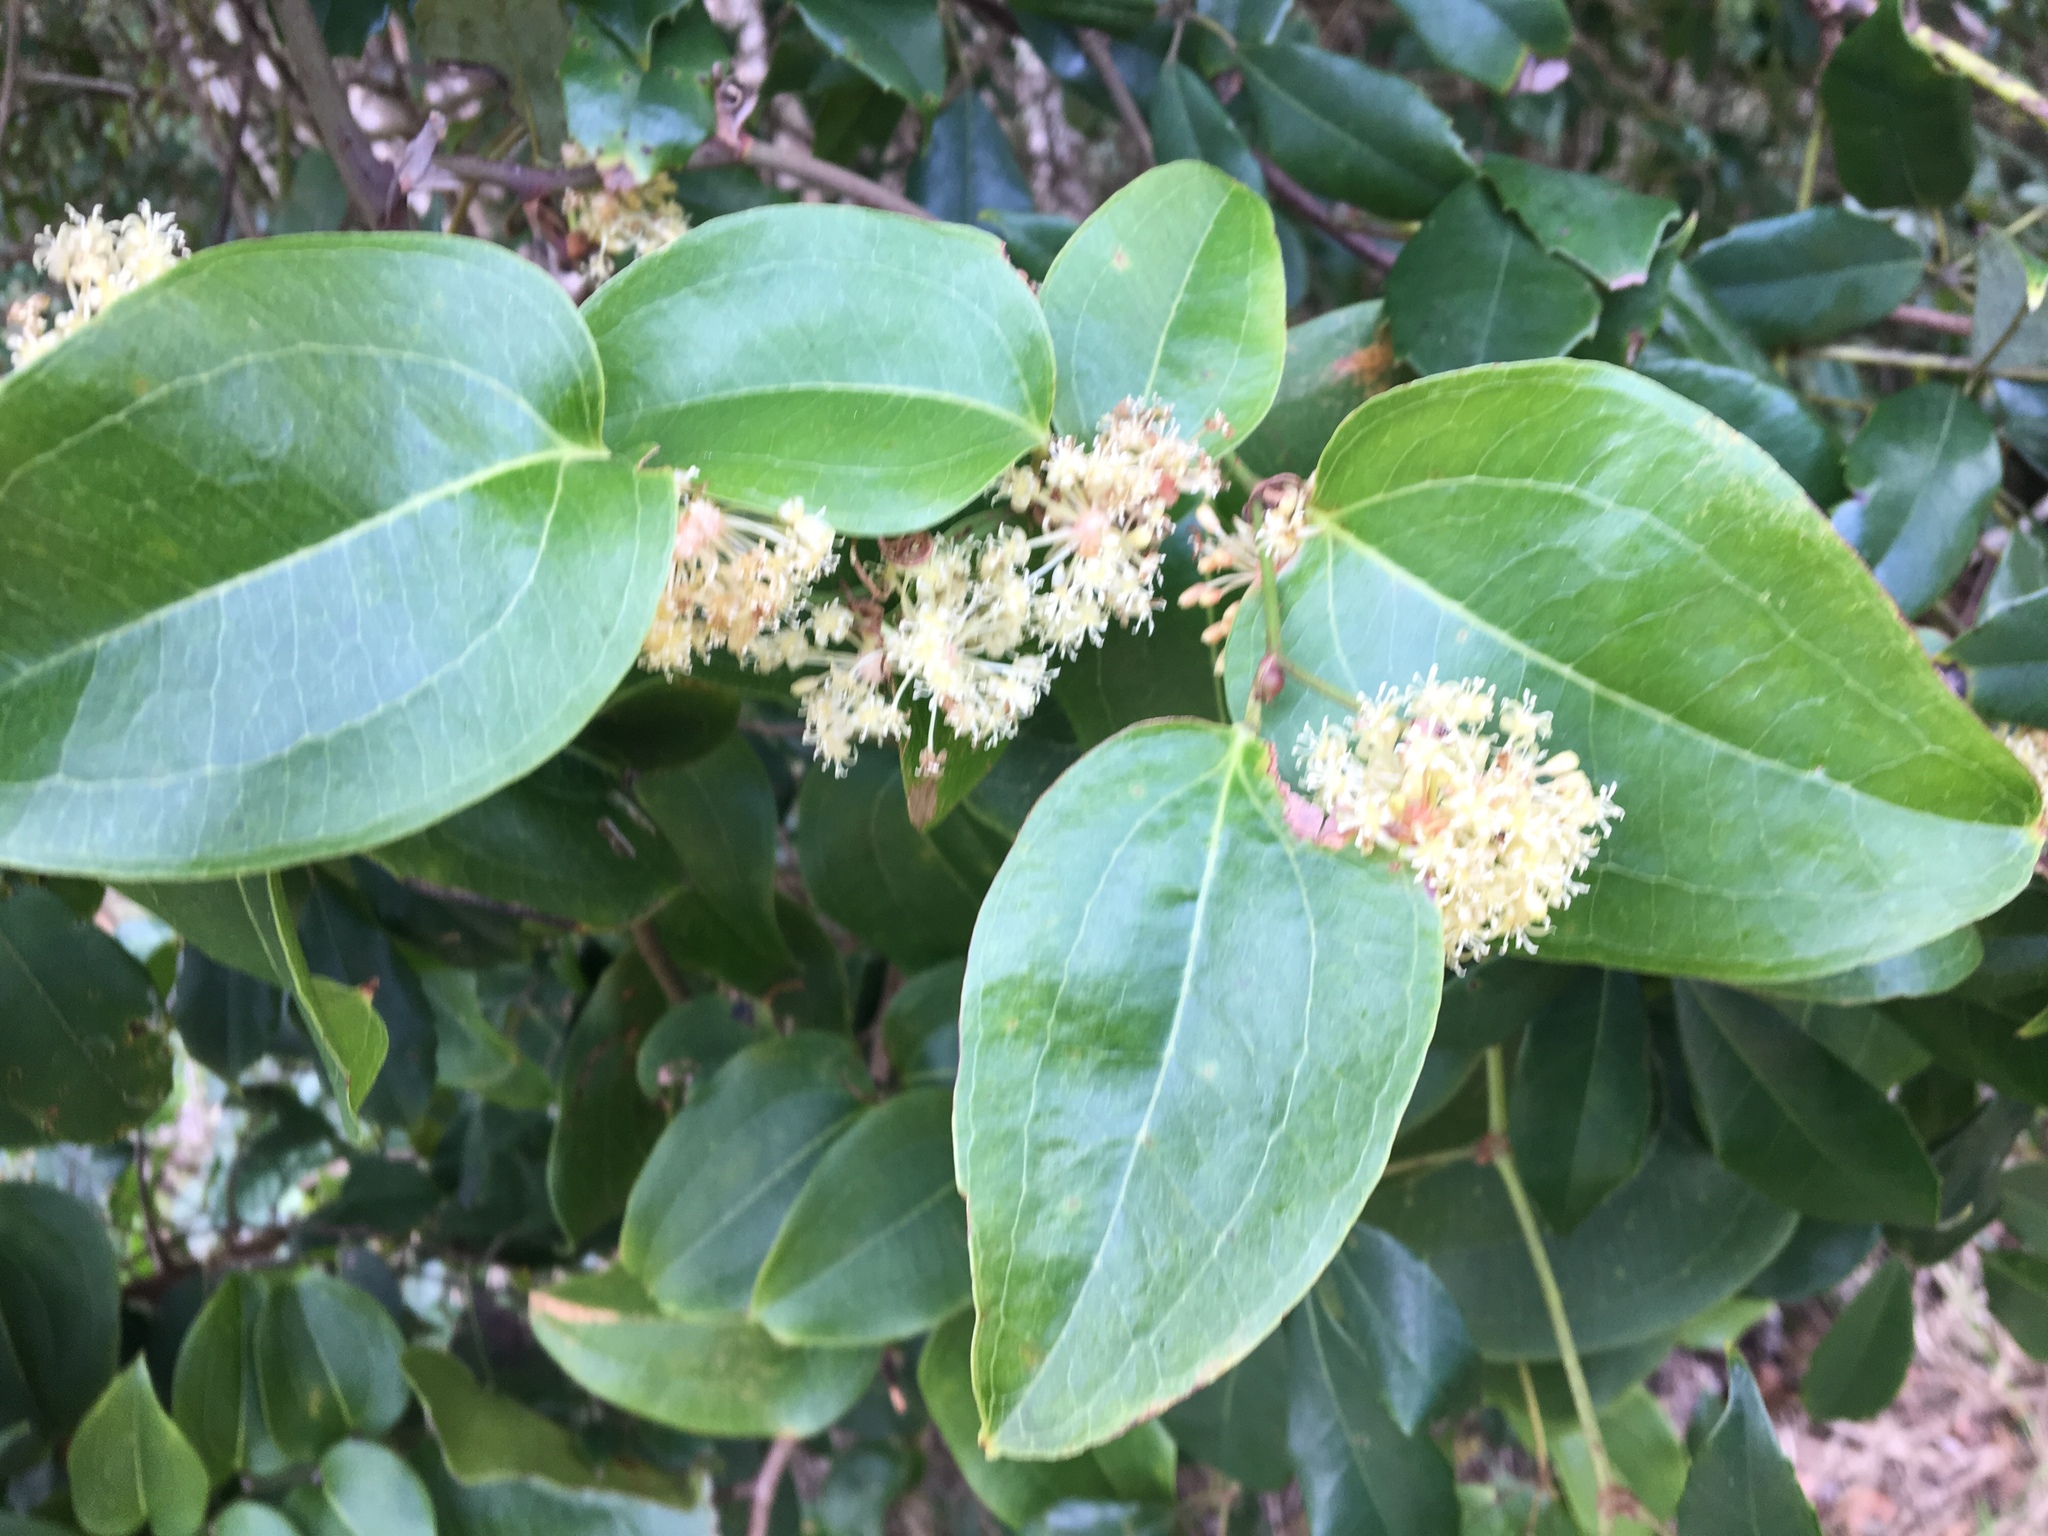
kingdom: Plantae
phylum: Tracheophyta
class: Liliopsida
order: Liliales
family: Smilacaceae
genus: Smilax
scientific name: Smilax australis
